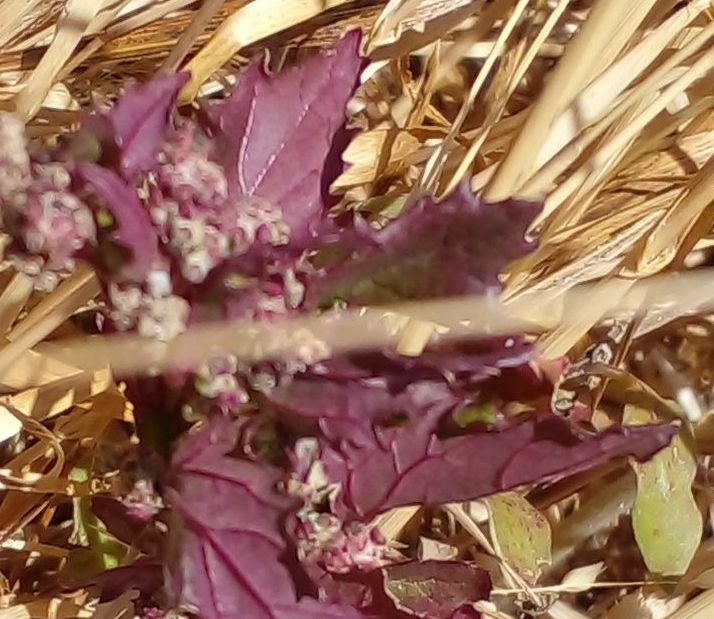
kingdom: Plantae
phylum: Tracheophyta
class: Magnoliopsida
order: Caryophyllales
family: Amaranthaceae
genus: Chenopodiastrum
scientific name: Chenopodiastrum murale
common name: Sowbane
